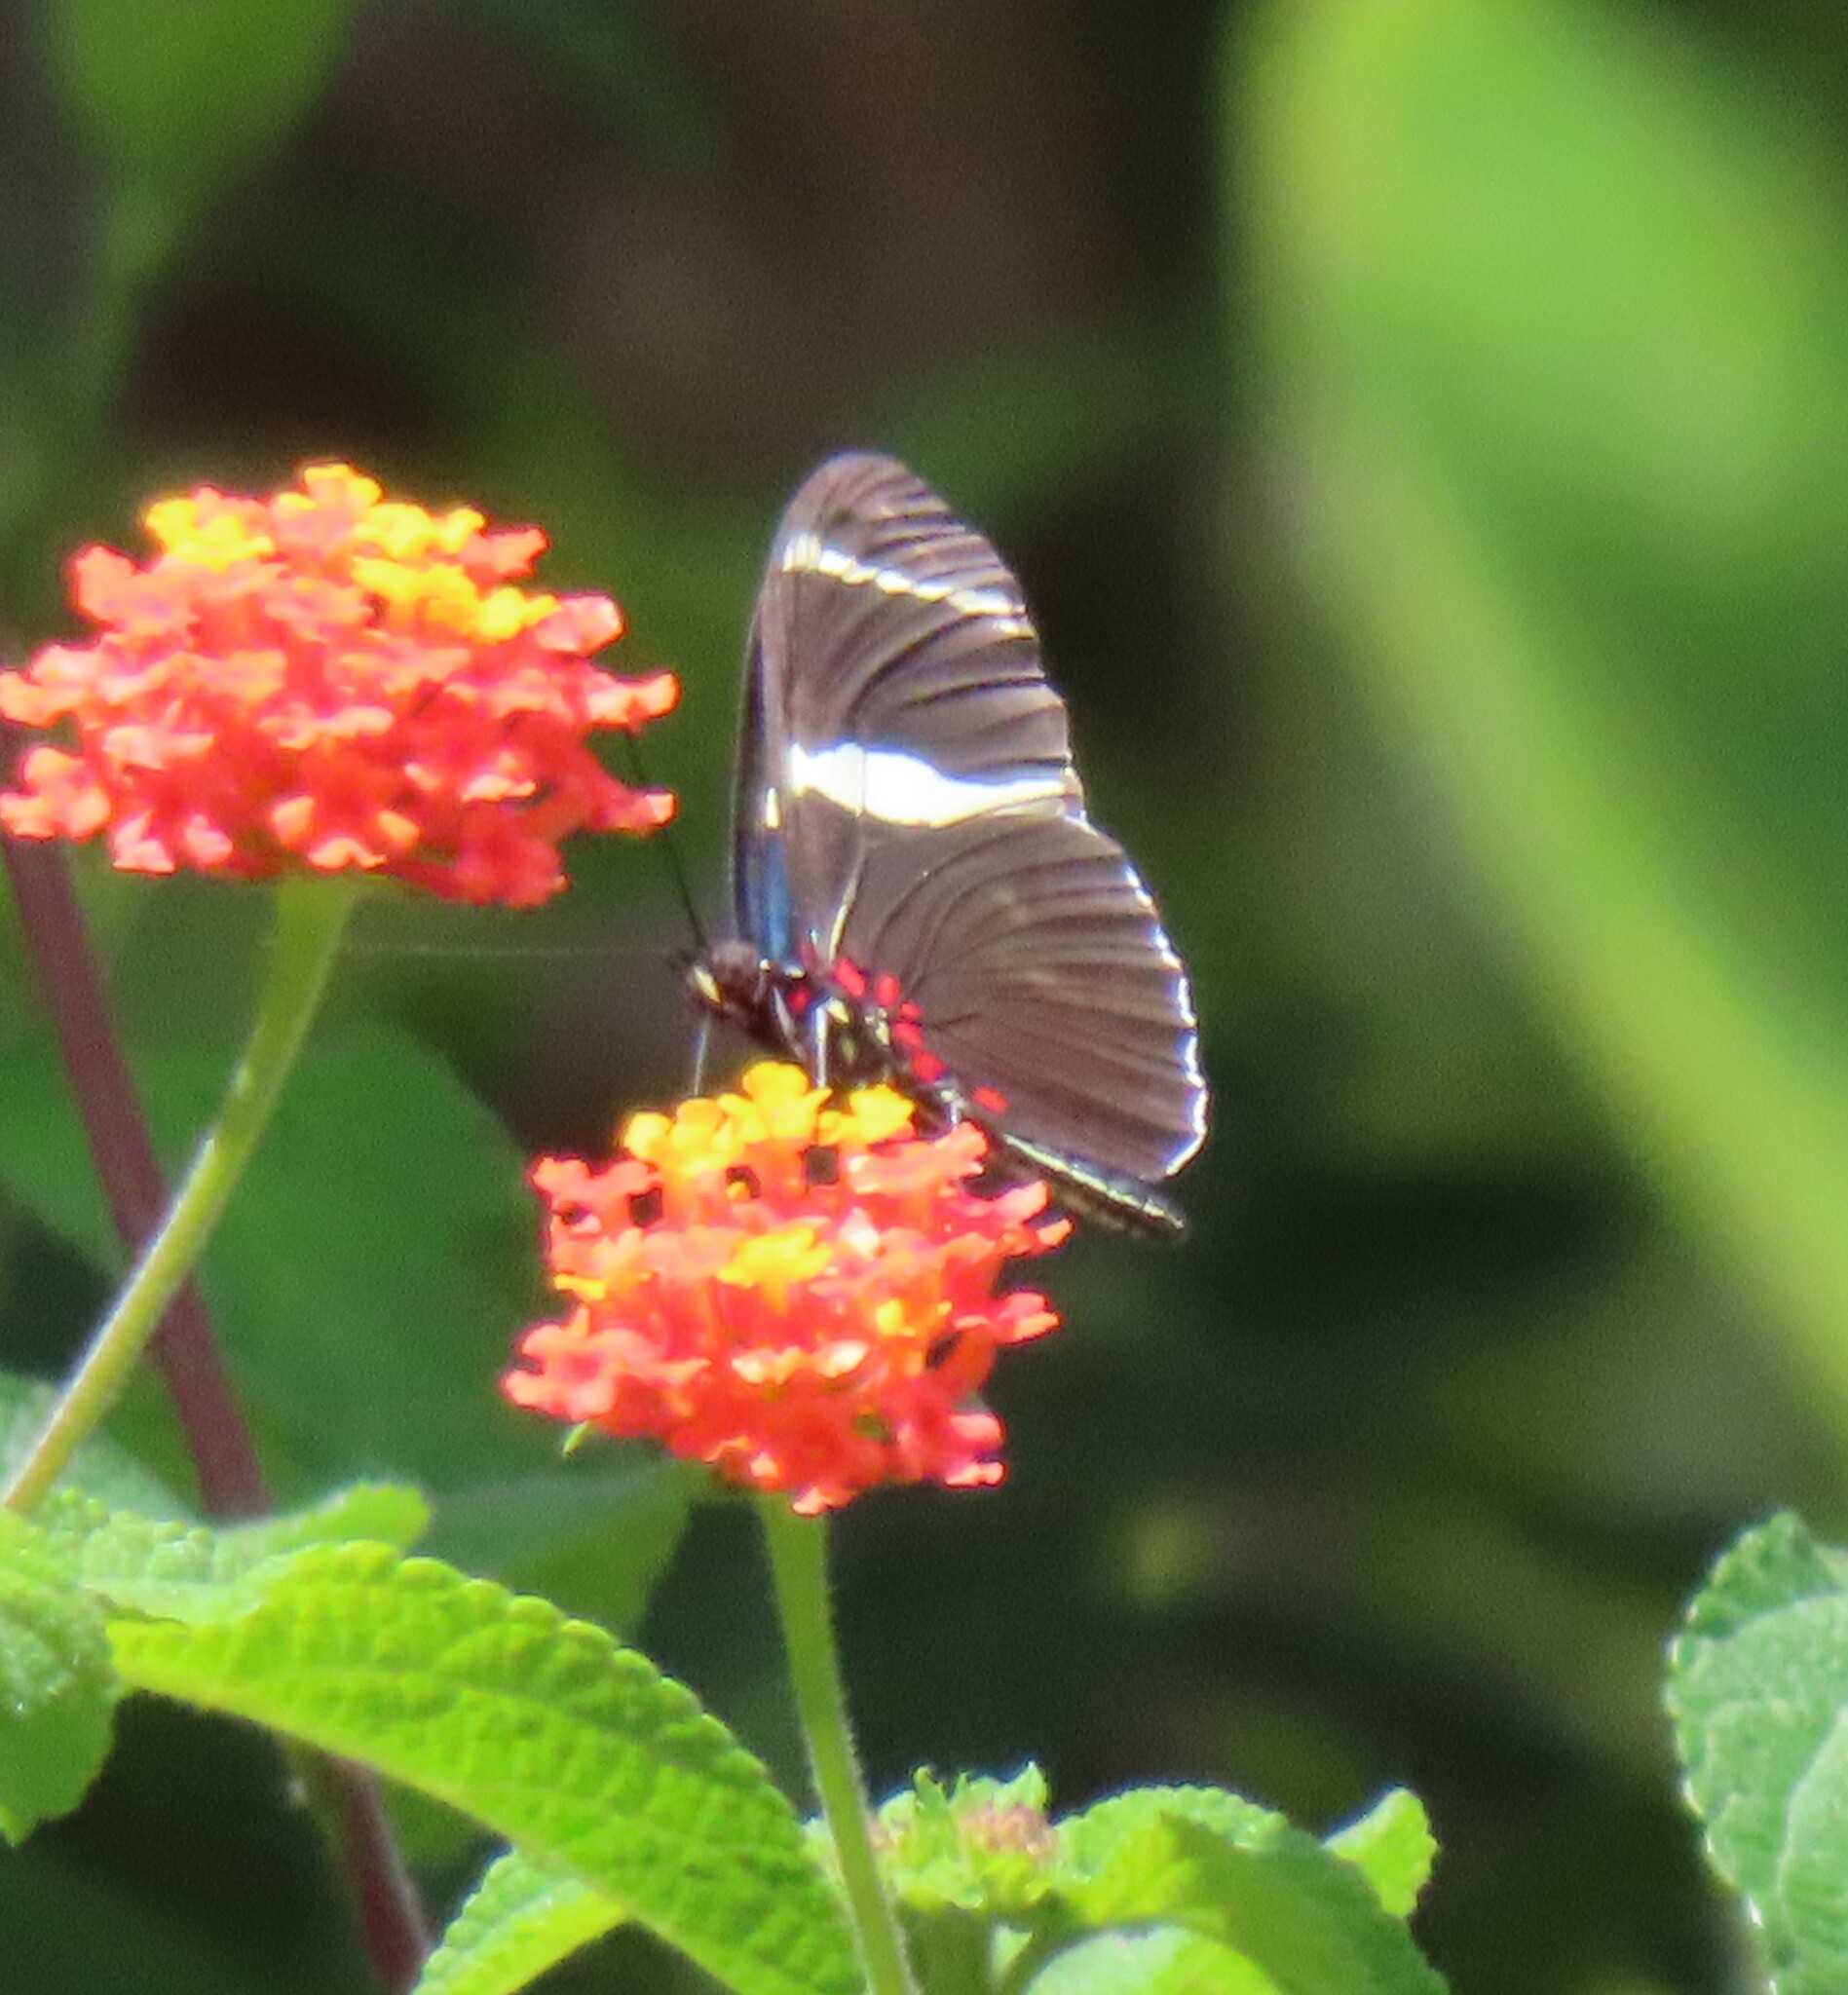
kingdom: Animalia
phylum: Arthropoda
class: Insecta
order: Lepidoptera
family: Nymphalidae
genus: Heliconius
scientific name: Heliconius sara
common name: Sara longwing
